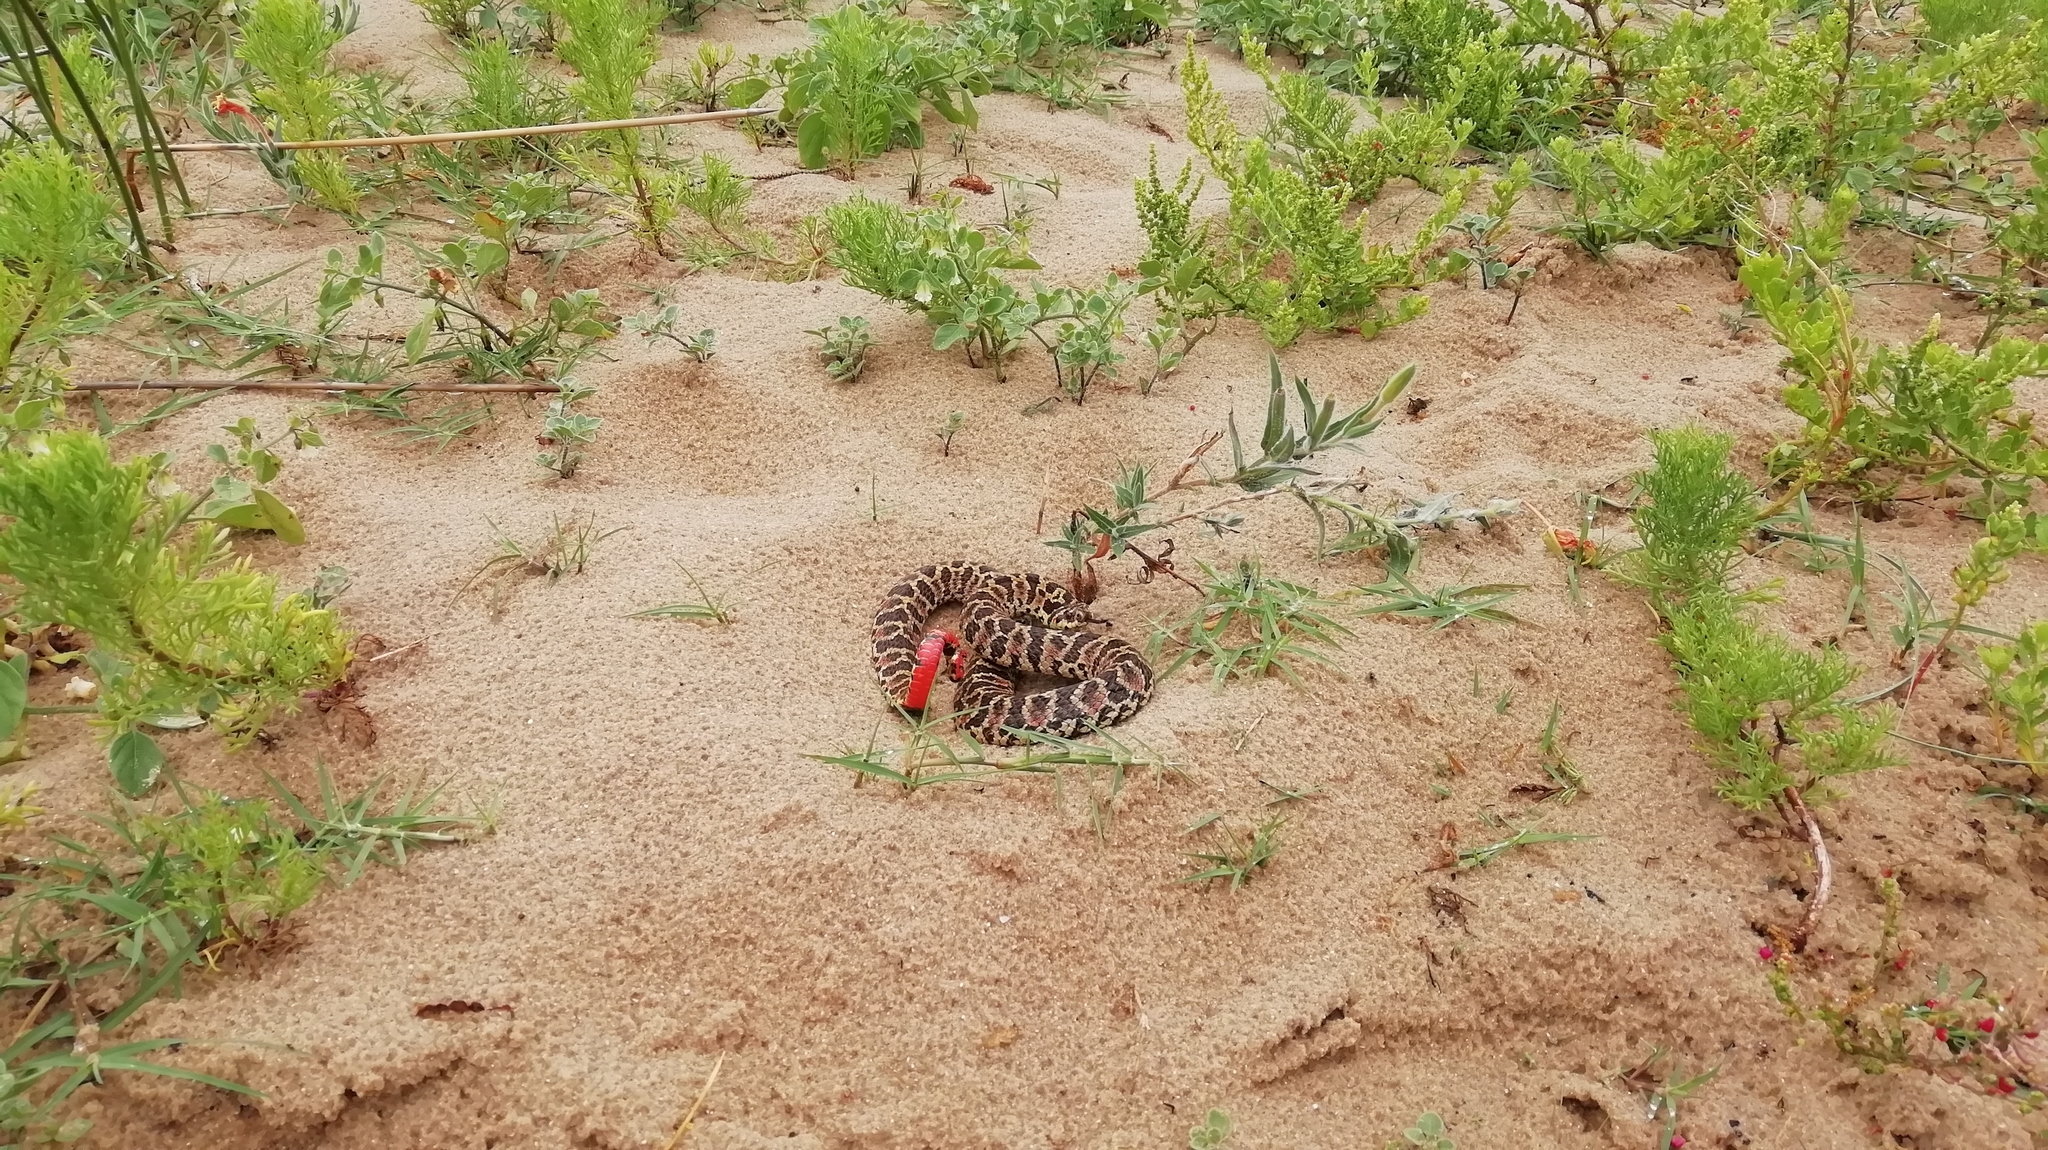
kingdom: Animalia
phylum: Chordata
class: Squamata
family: Colubridae
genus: Xenodon
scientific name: Xenodon dorbignyi
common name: South american hognose snake
